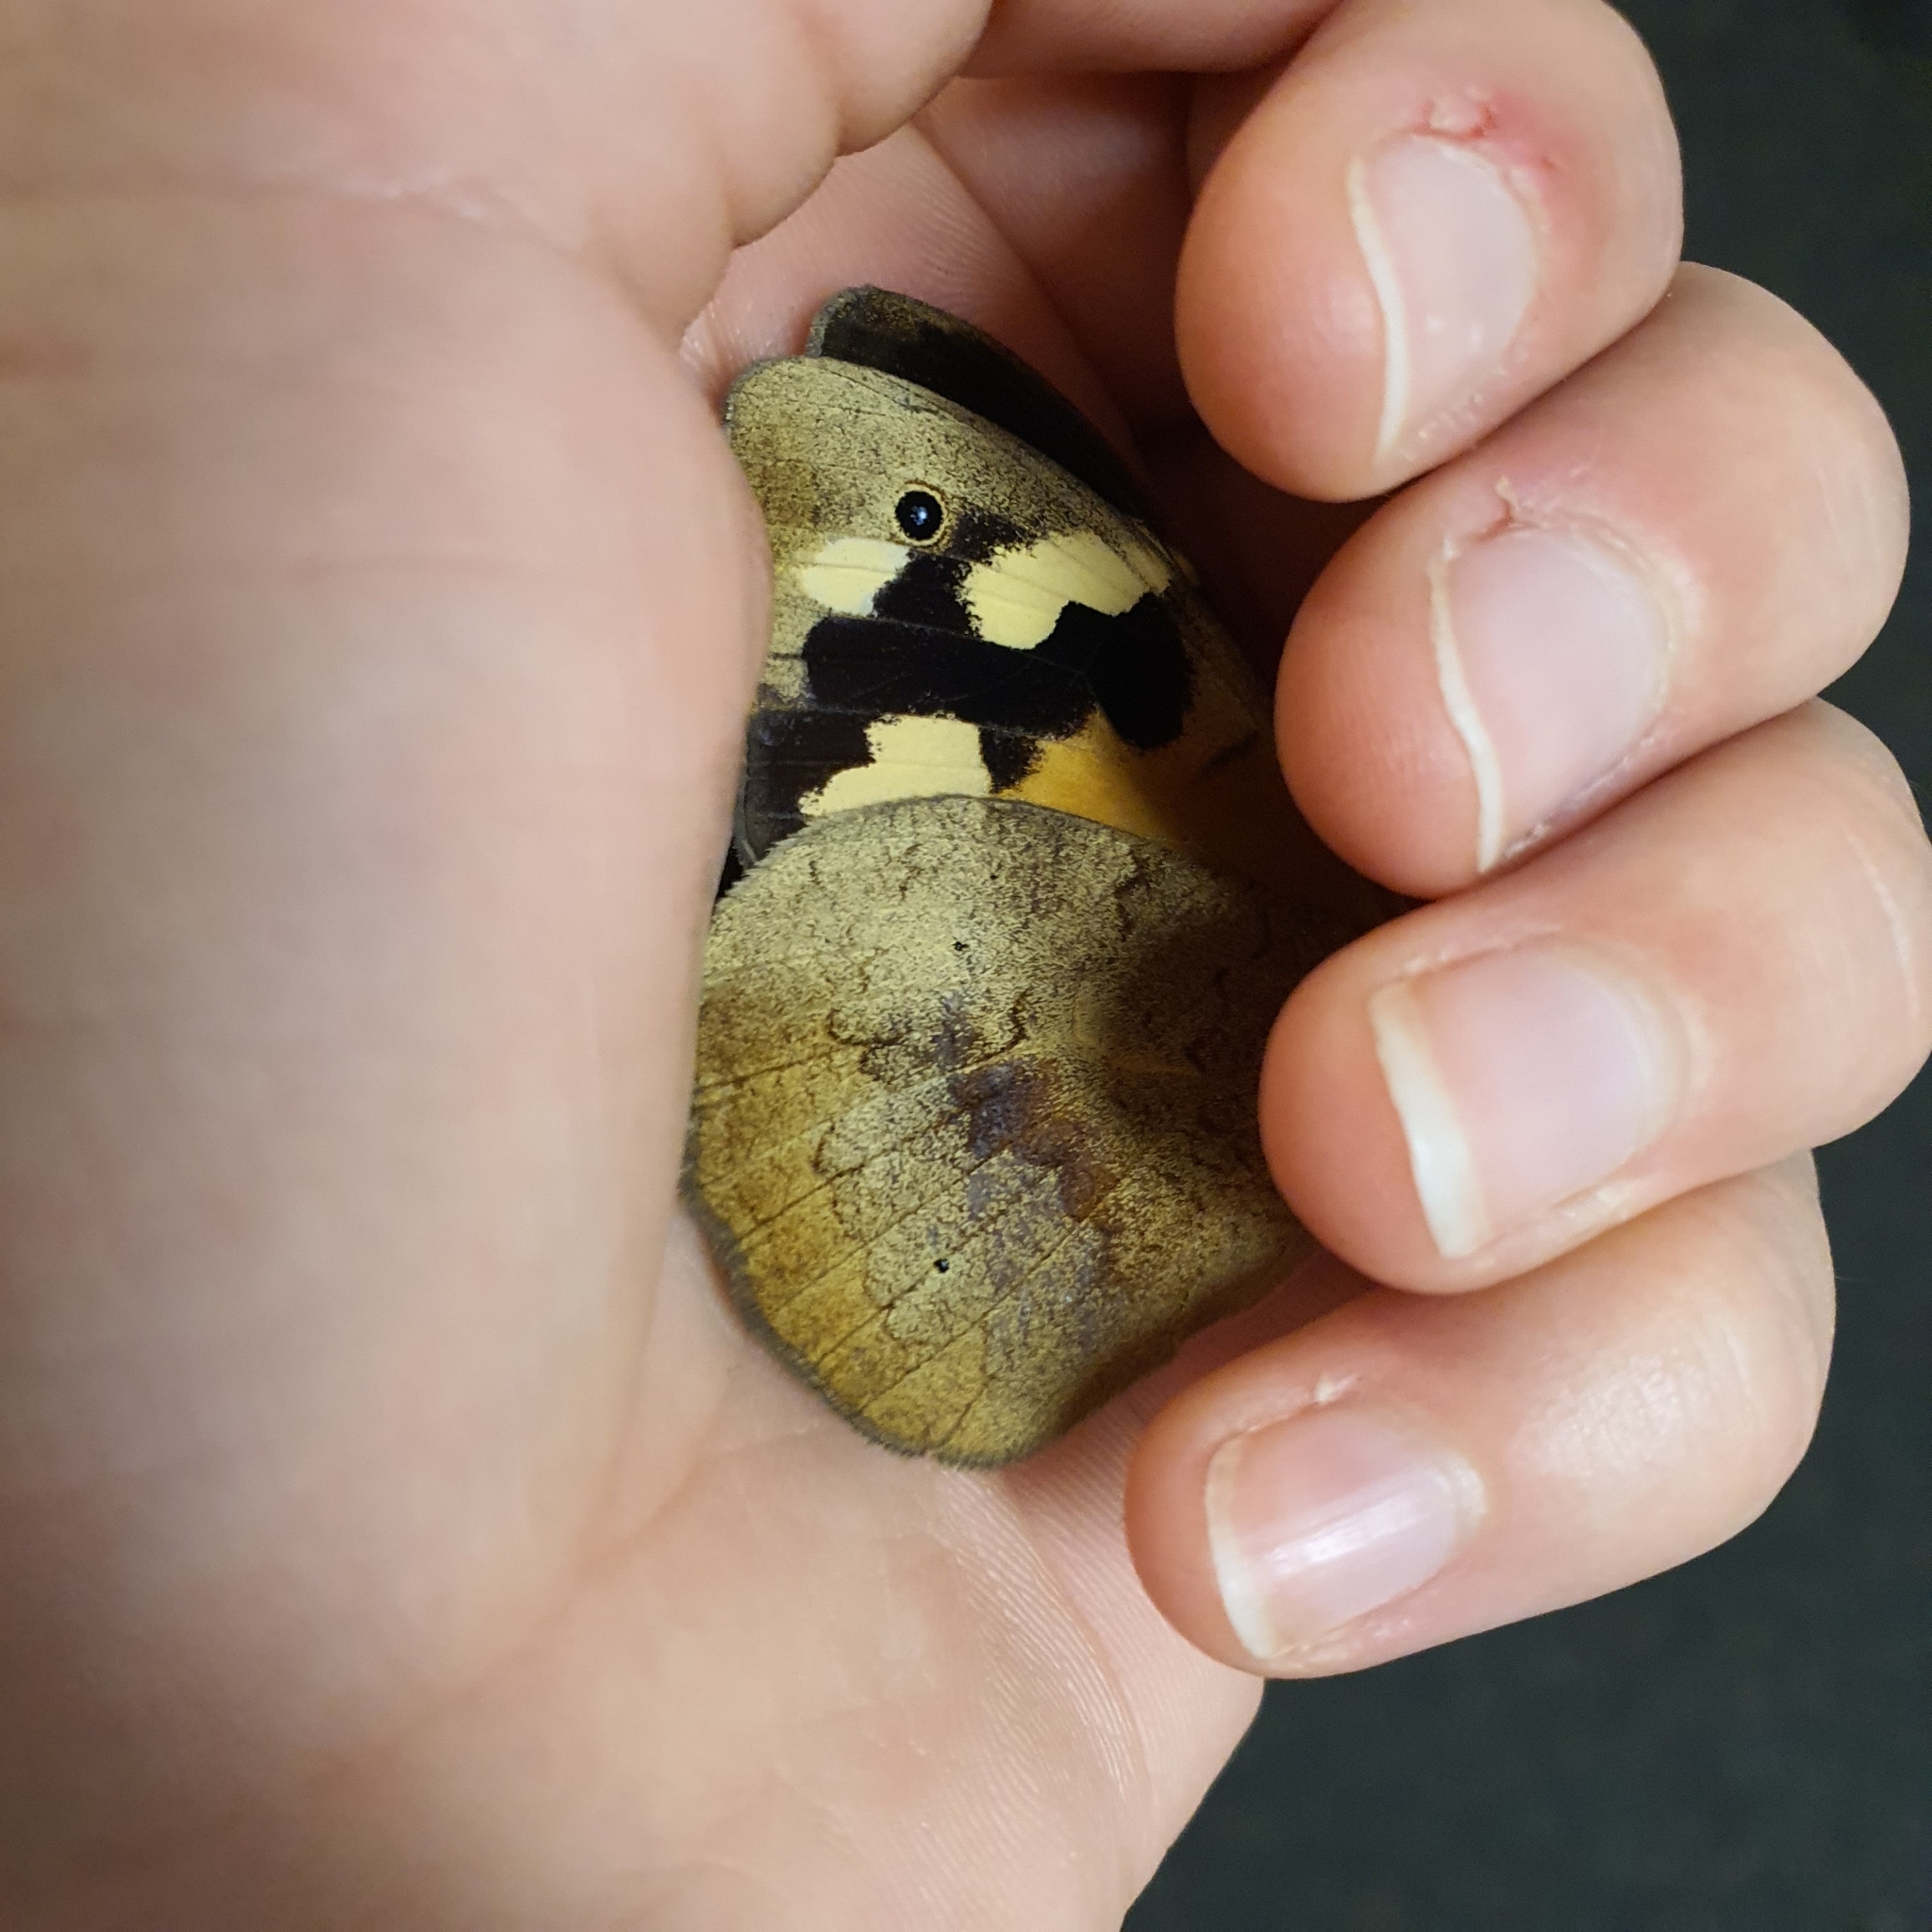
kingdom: Animalia
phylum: Arthropoda
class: Insecta
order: Lepidoptera
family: Nymphalidae
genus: Heteronympha
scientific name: Heteronympha merope
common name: Common brown
